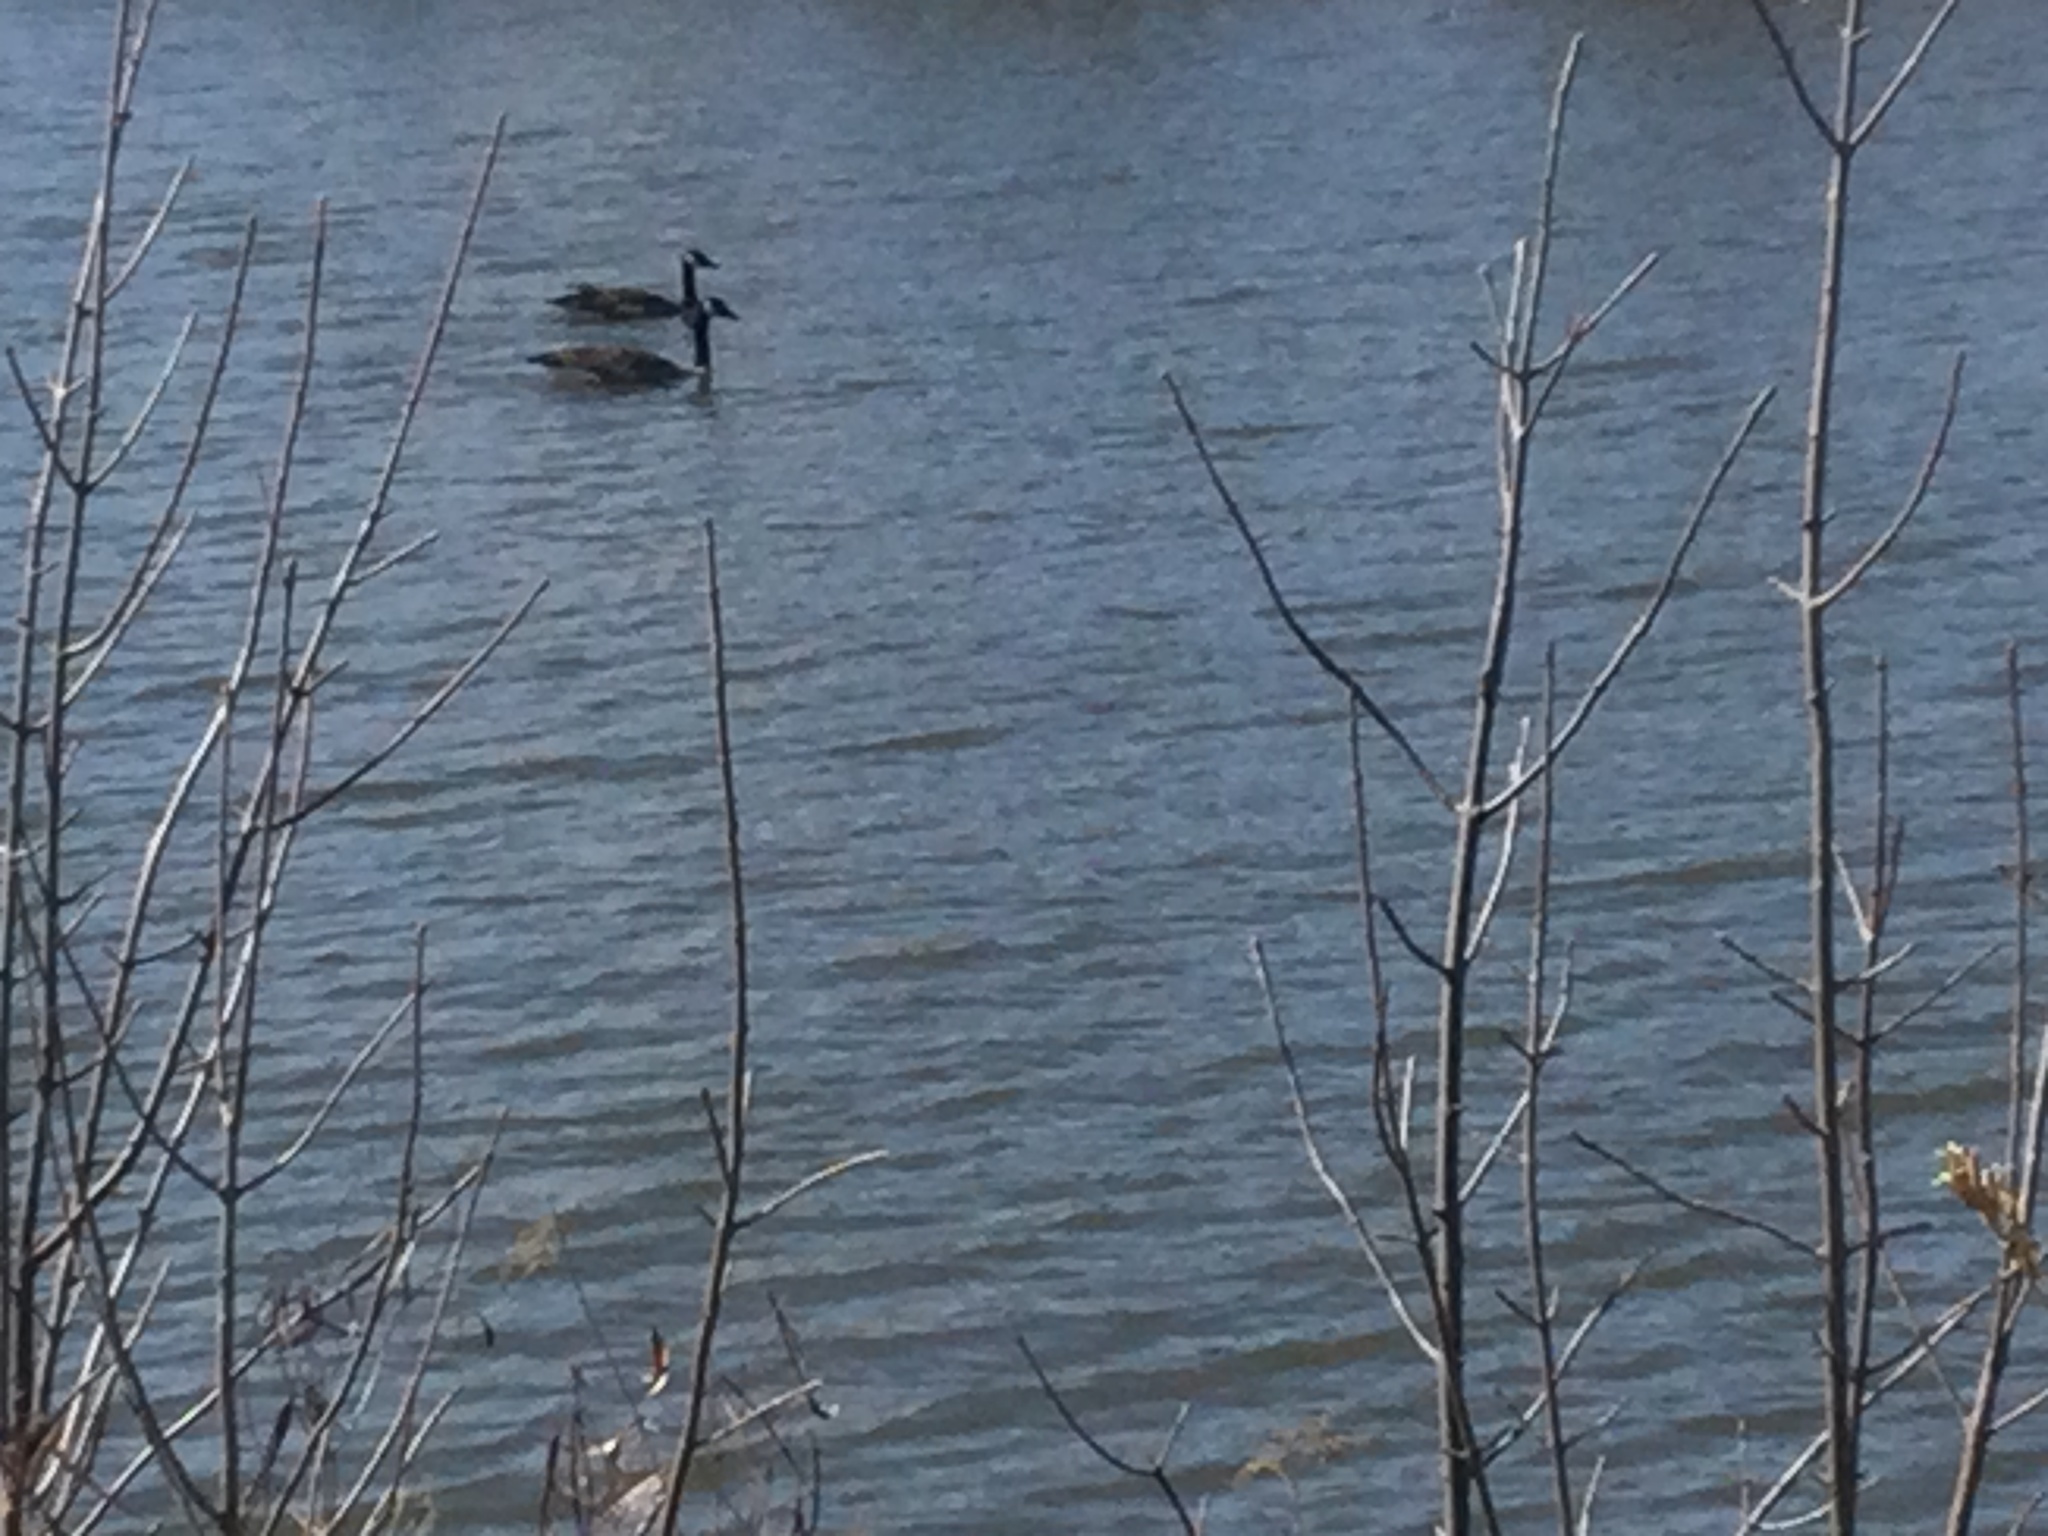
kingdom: Animalia
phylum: Chordata
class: Aves
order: Anseriformes
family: Anatidae
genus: Branta
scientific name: Branta canadensis
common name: Canada goose
